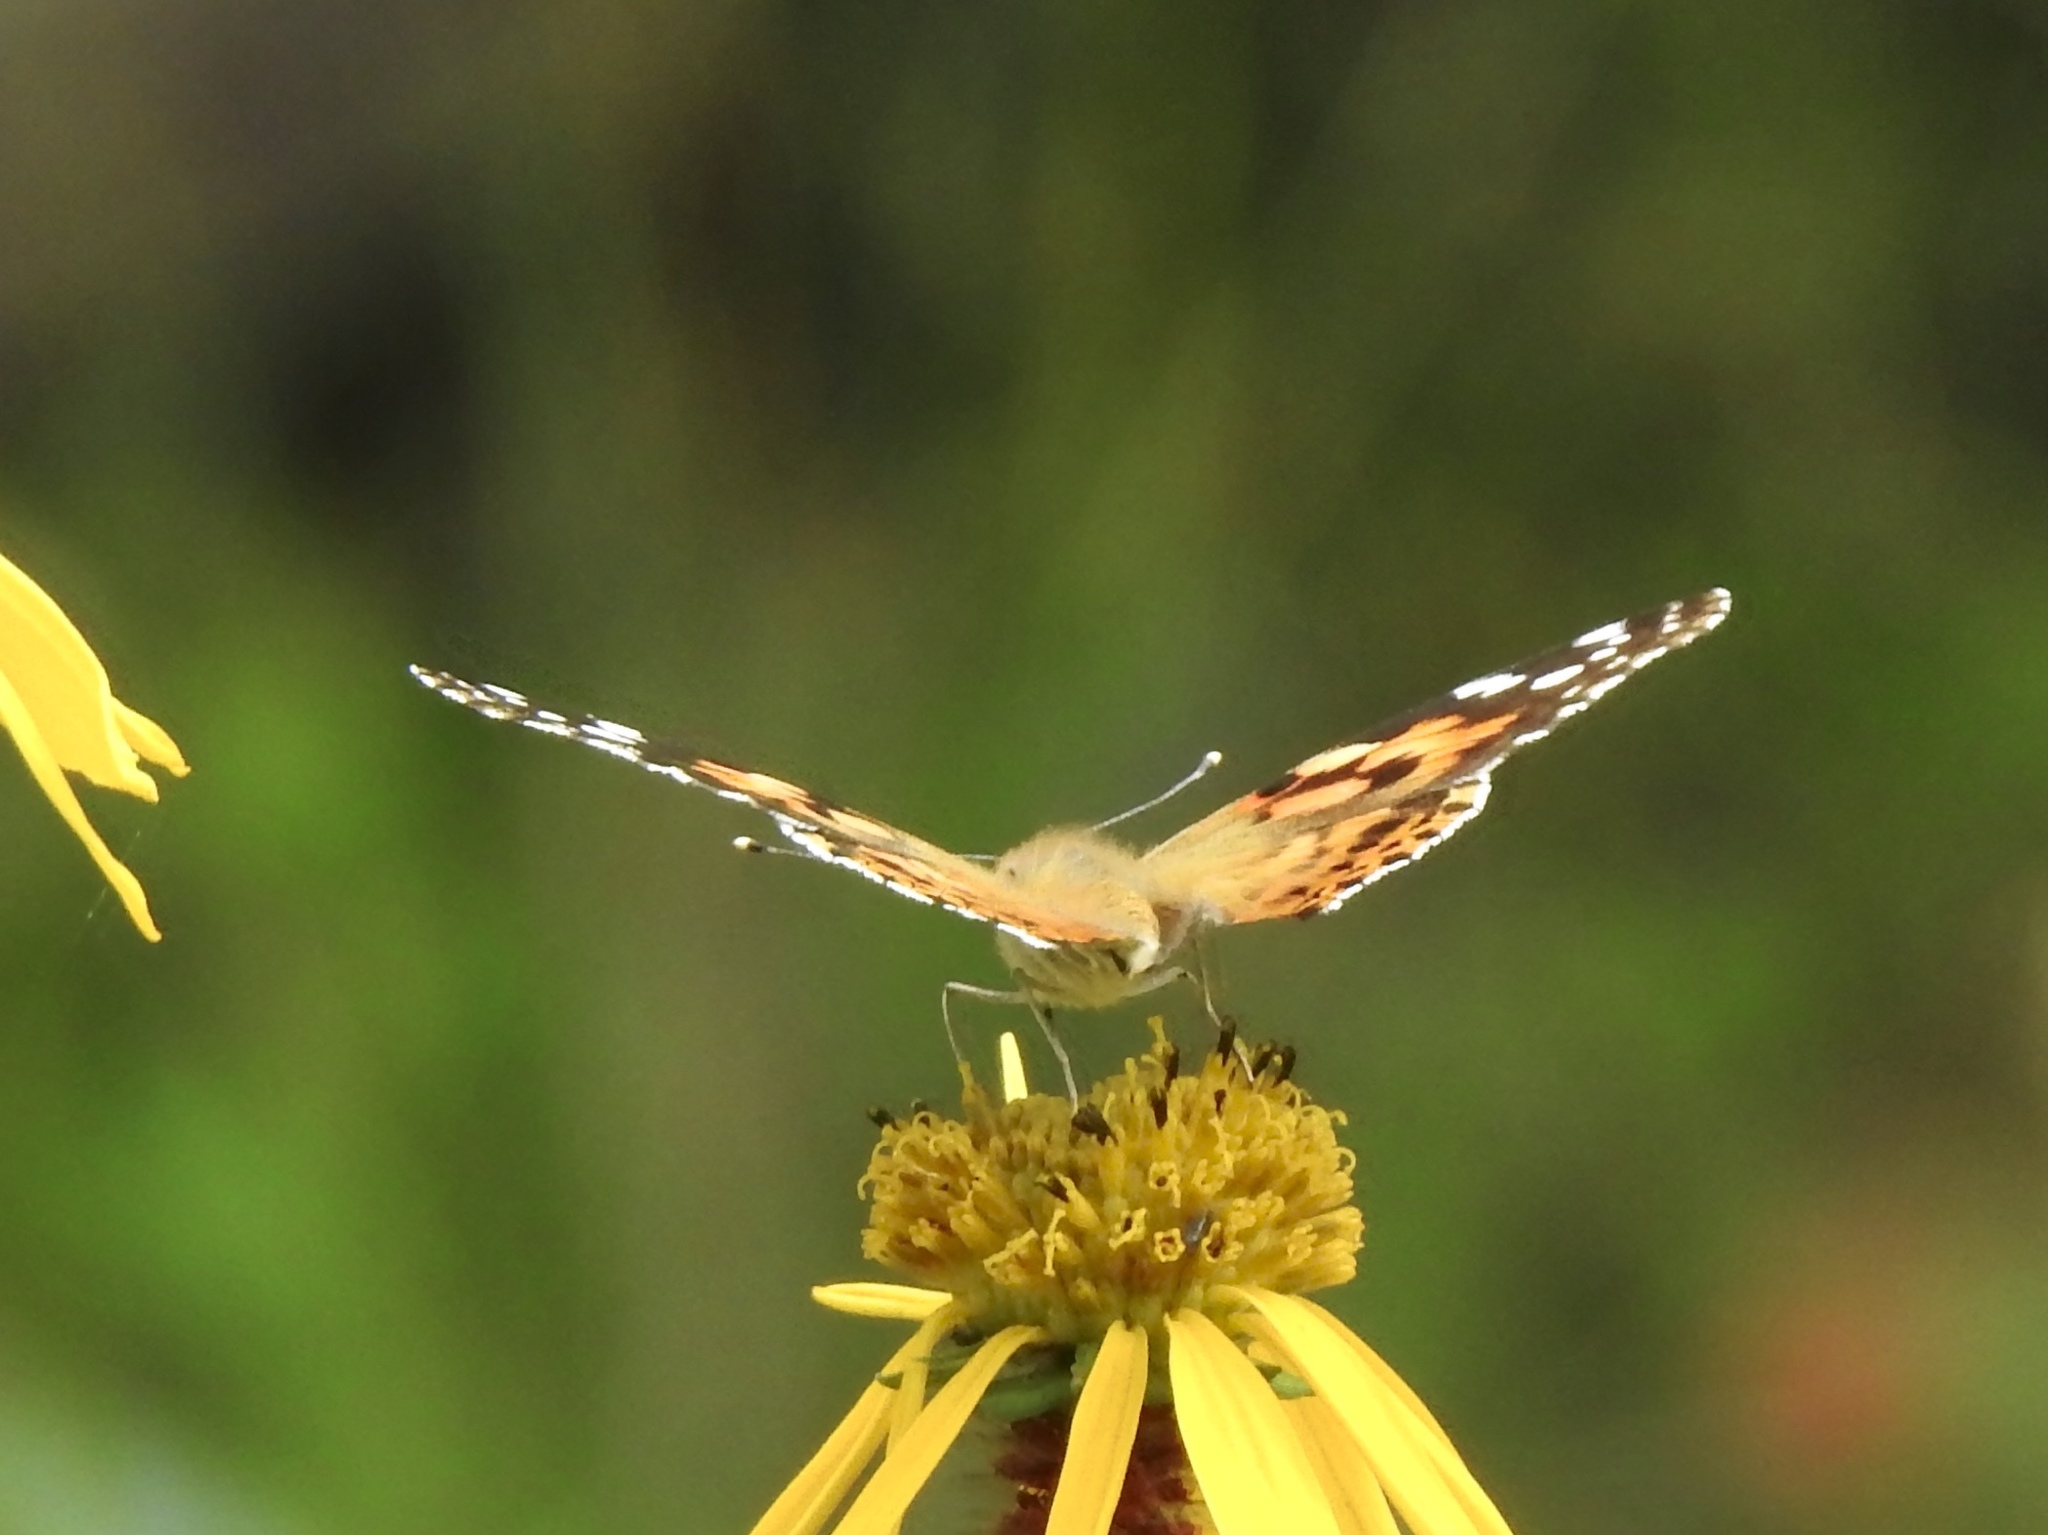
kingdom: Animalia
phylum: Arthropoda
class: Insecta
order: Lepidoptera
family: Nymphalidae
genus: Vanessa
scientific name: Vanessa cardui
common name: Painted lady
